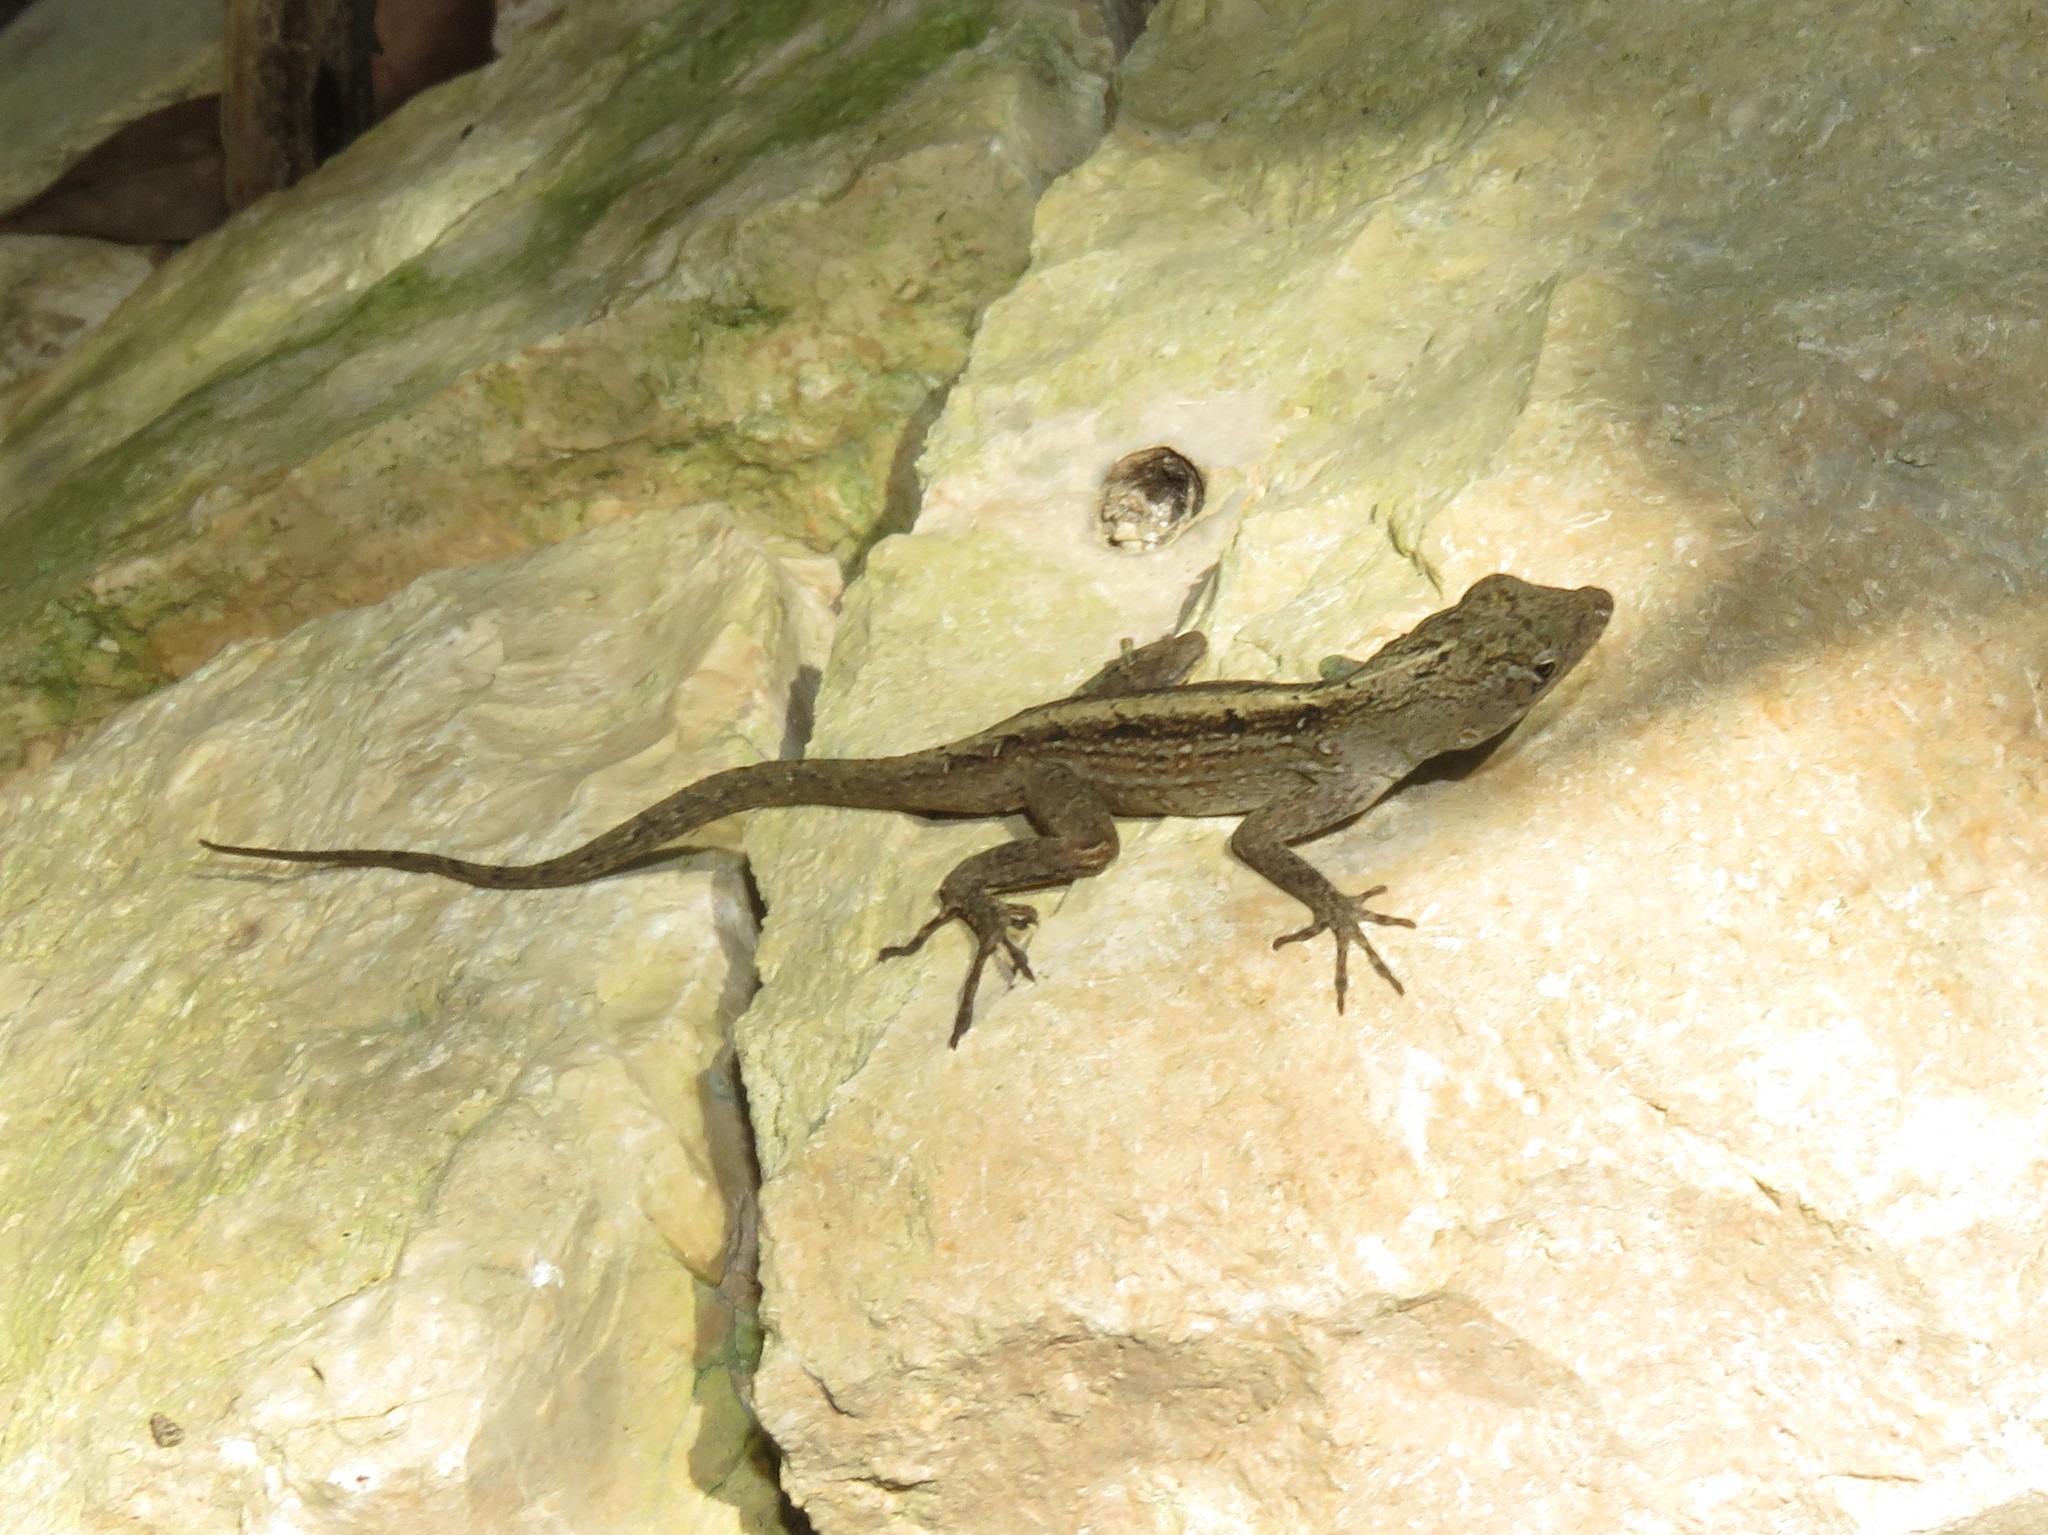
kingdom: Animalia
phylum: Chordata
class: Squamata
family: Dactyloidae
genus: Anolis
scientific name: Anolis sagrei
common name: Brown anole
